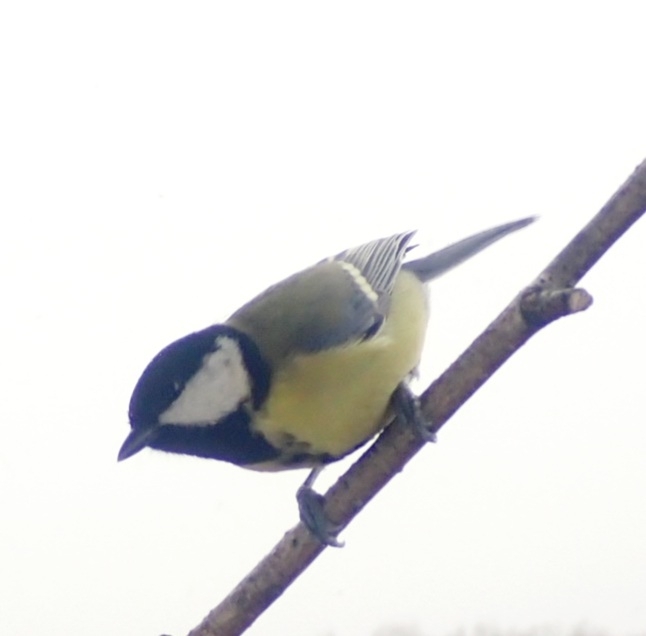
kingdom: Animalia
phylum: Chordata
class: Aves
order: Passeriformes
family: Paridae
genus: Parus
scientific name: Parus major
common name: Great tit
